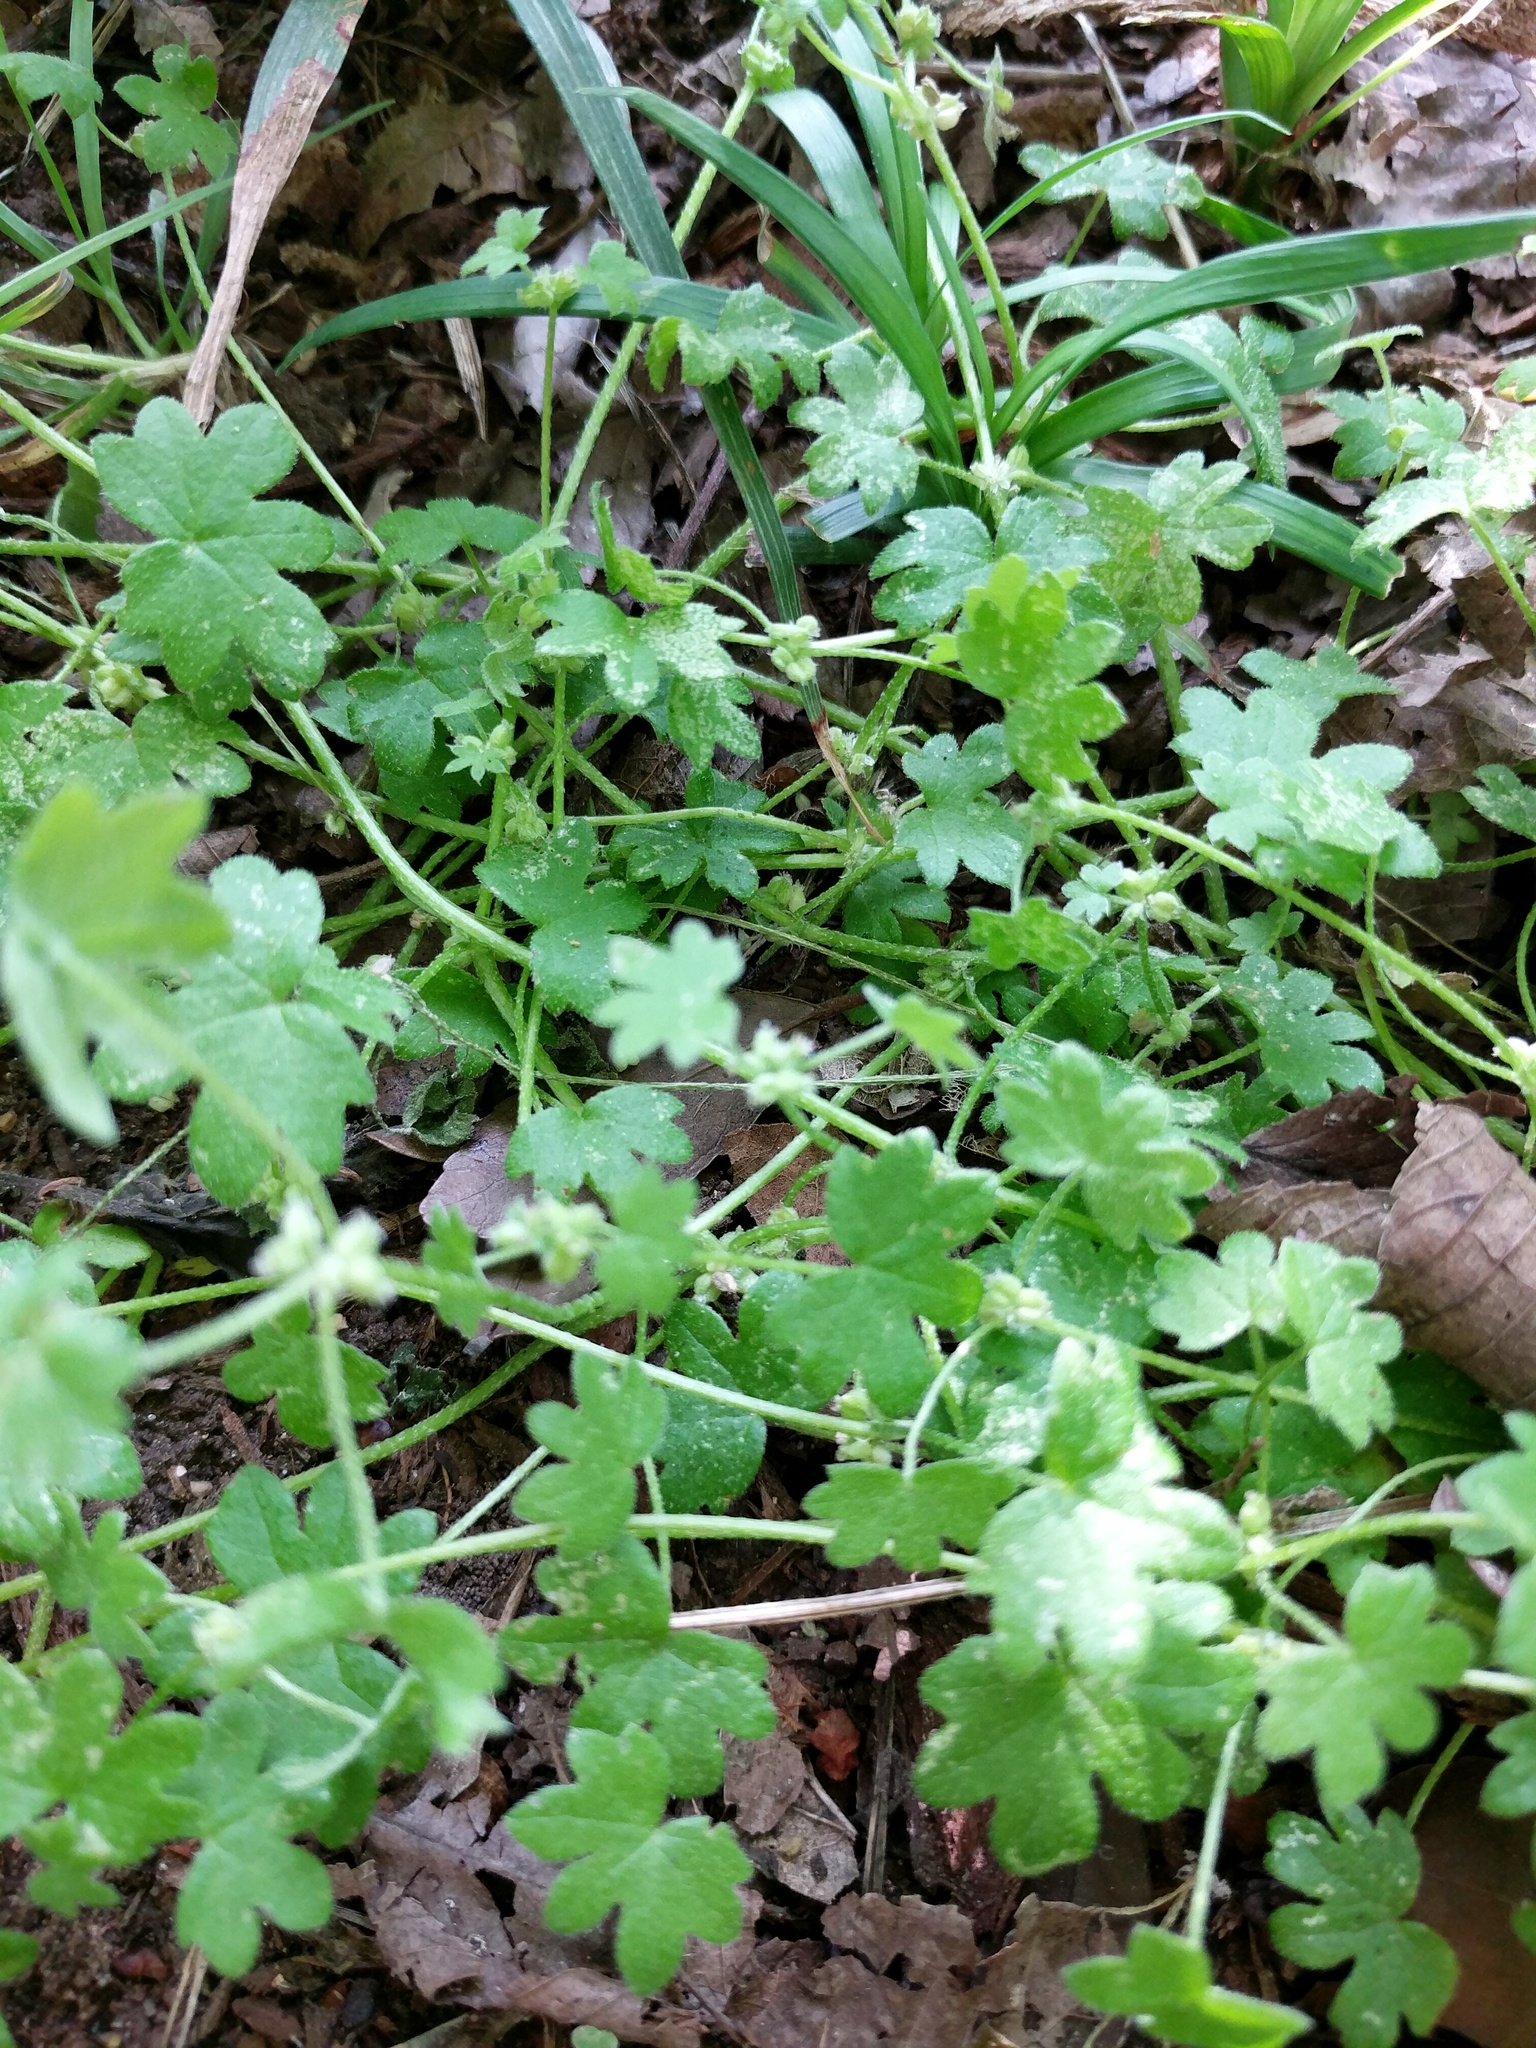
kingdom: Plantae
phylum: Tracheophyta
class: Magnoliopsida
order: Apiales
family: Apiaceae
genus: Bowlesia
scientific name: Bowlesia incana
